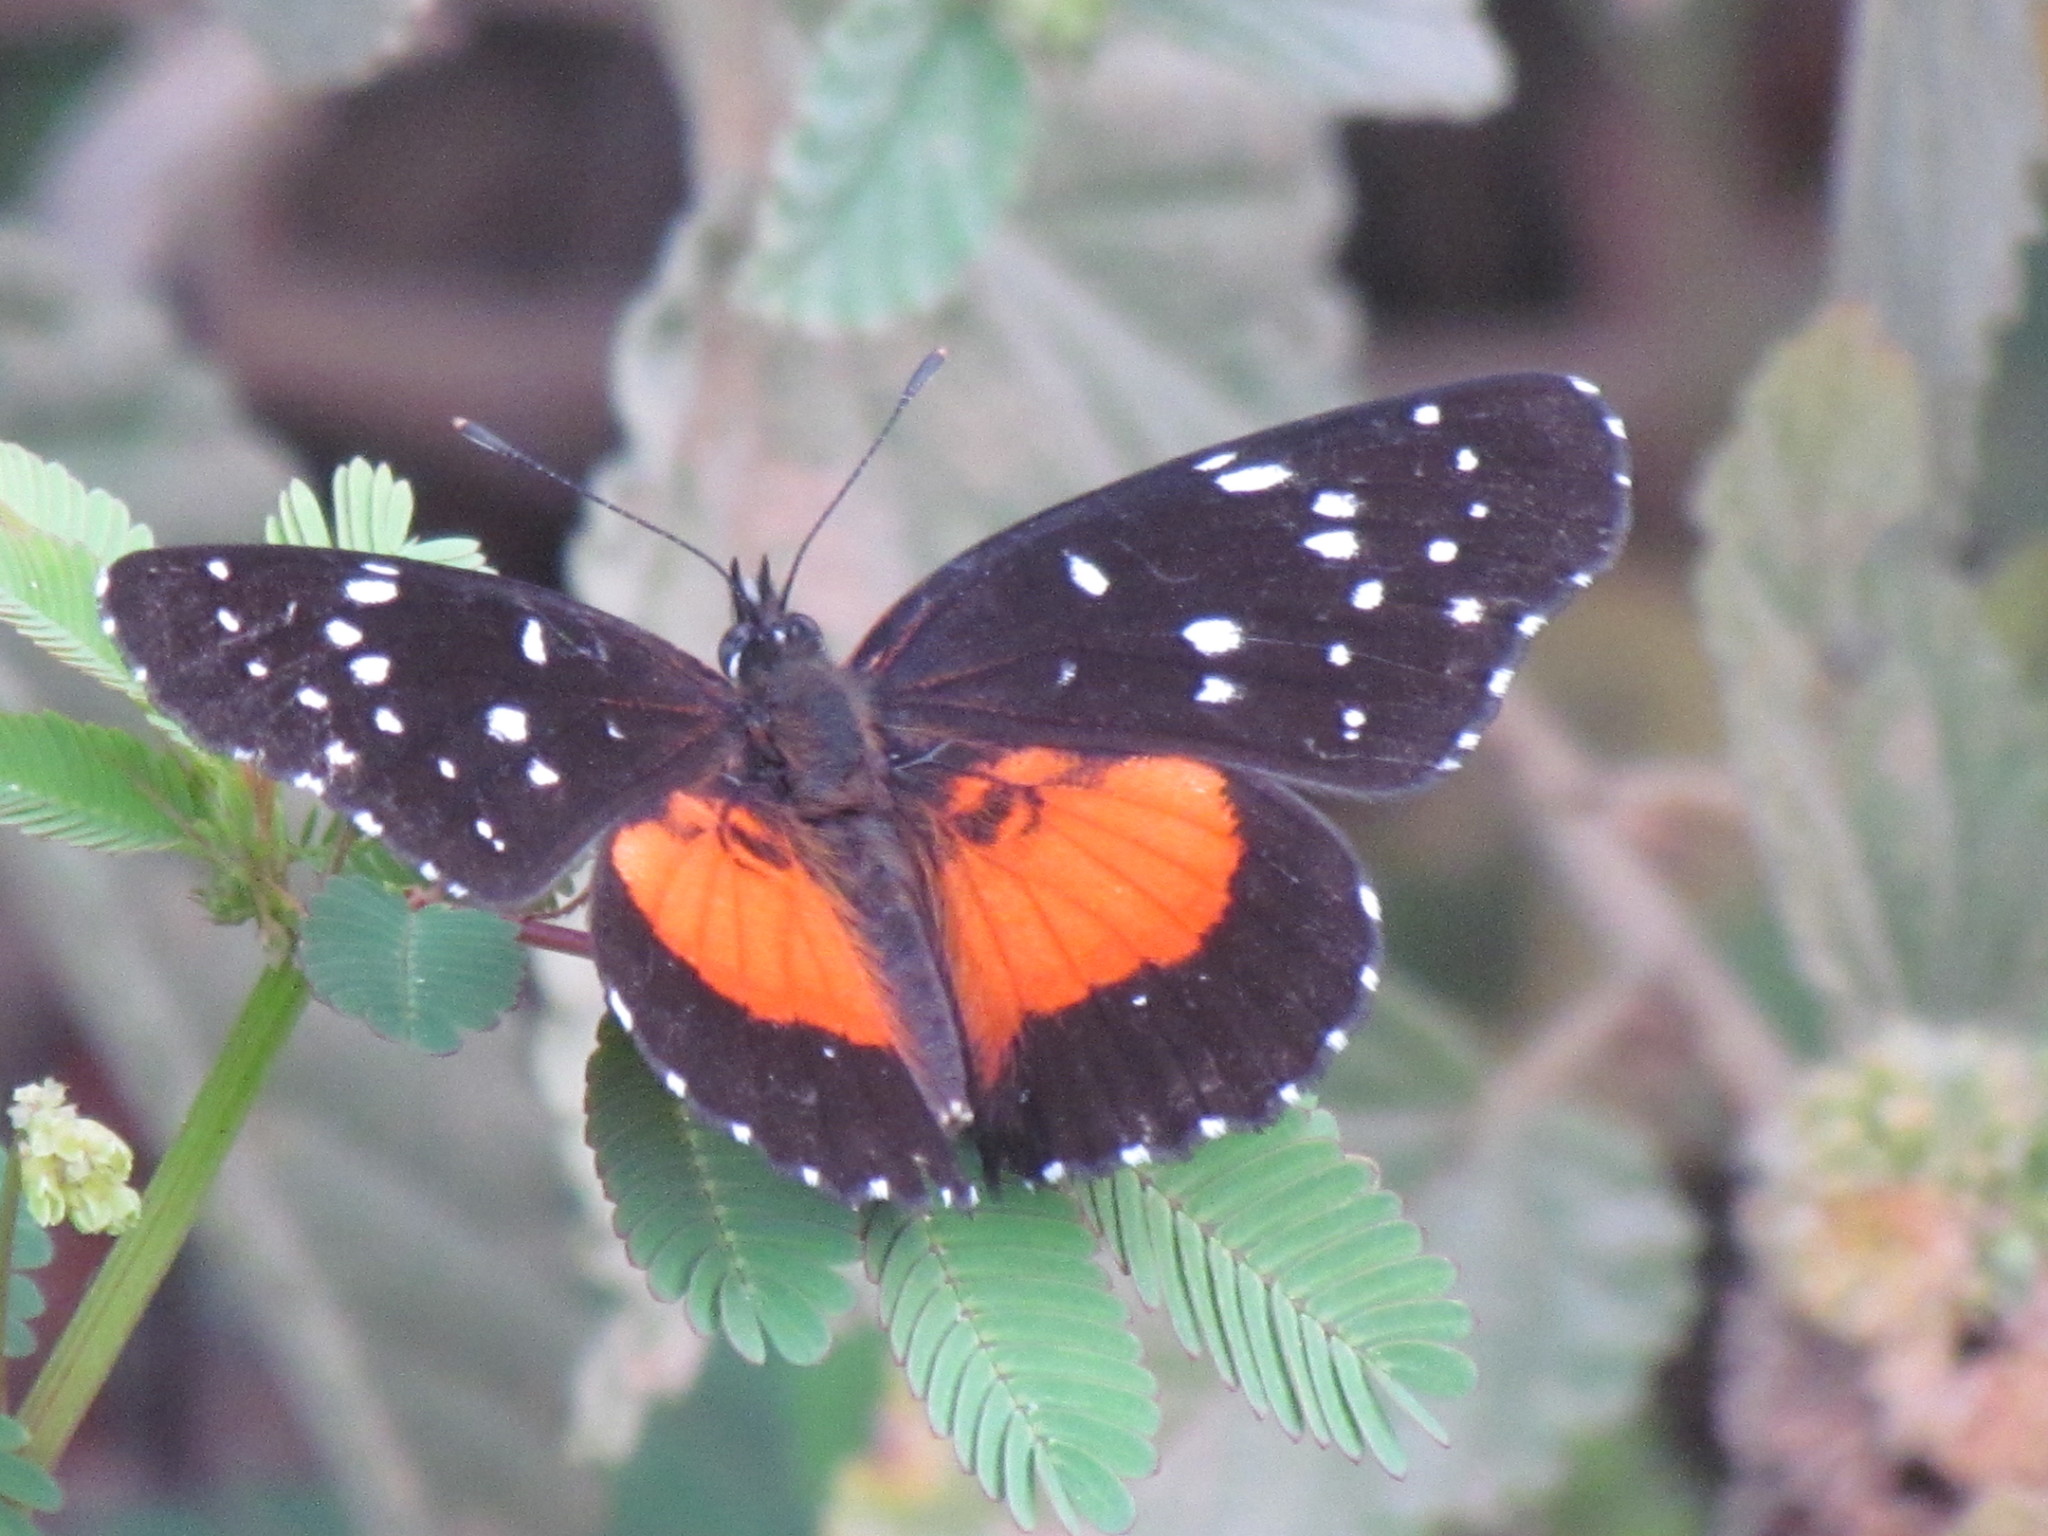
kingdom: Animalia
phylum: Arthropoda
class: Insecta
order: Lepidoptera
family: Nymphalidae
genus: Chlosyne
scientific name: Chlosyne lacinia
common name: Bordered patch
